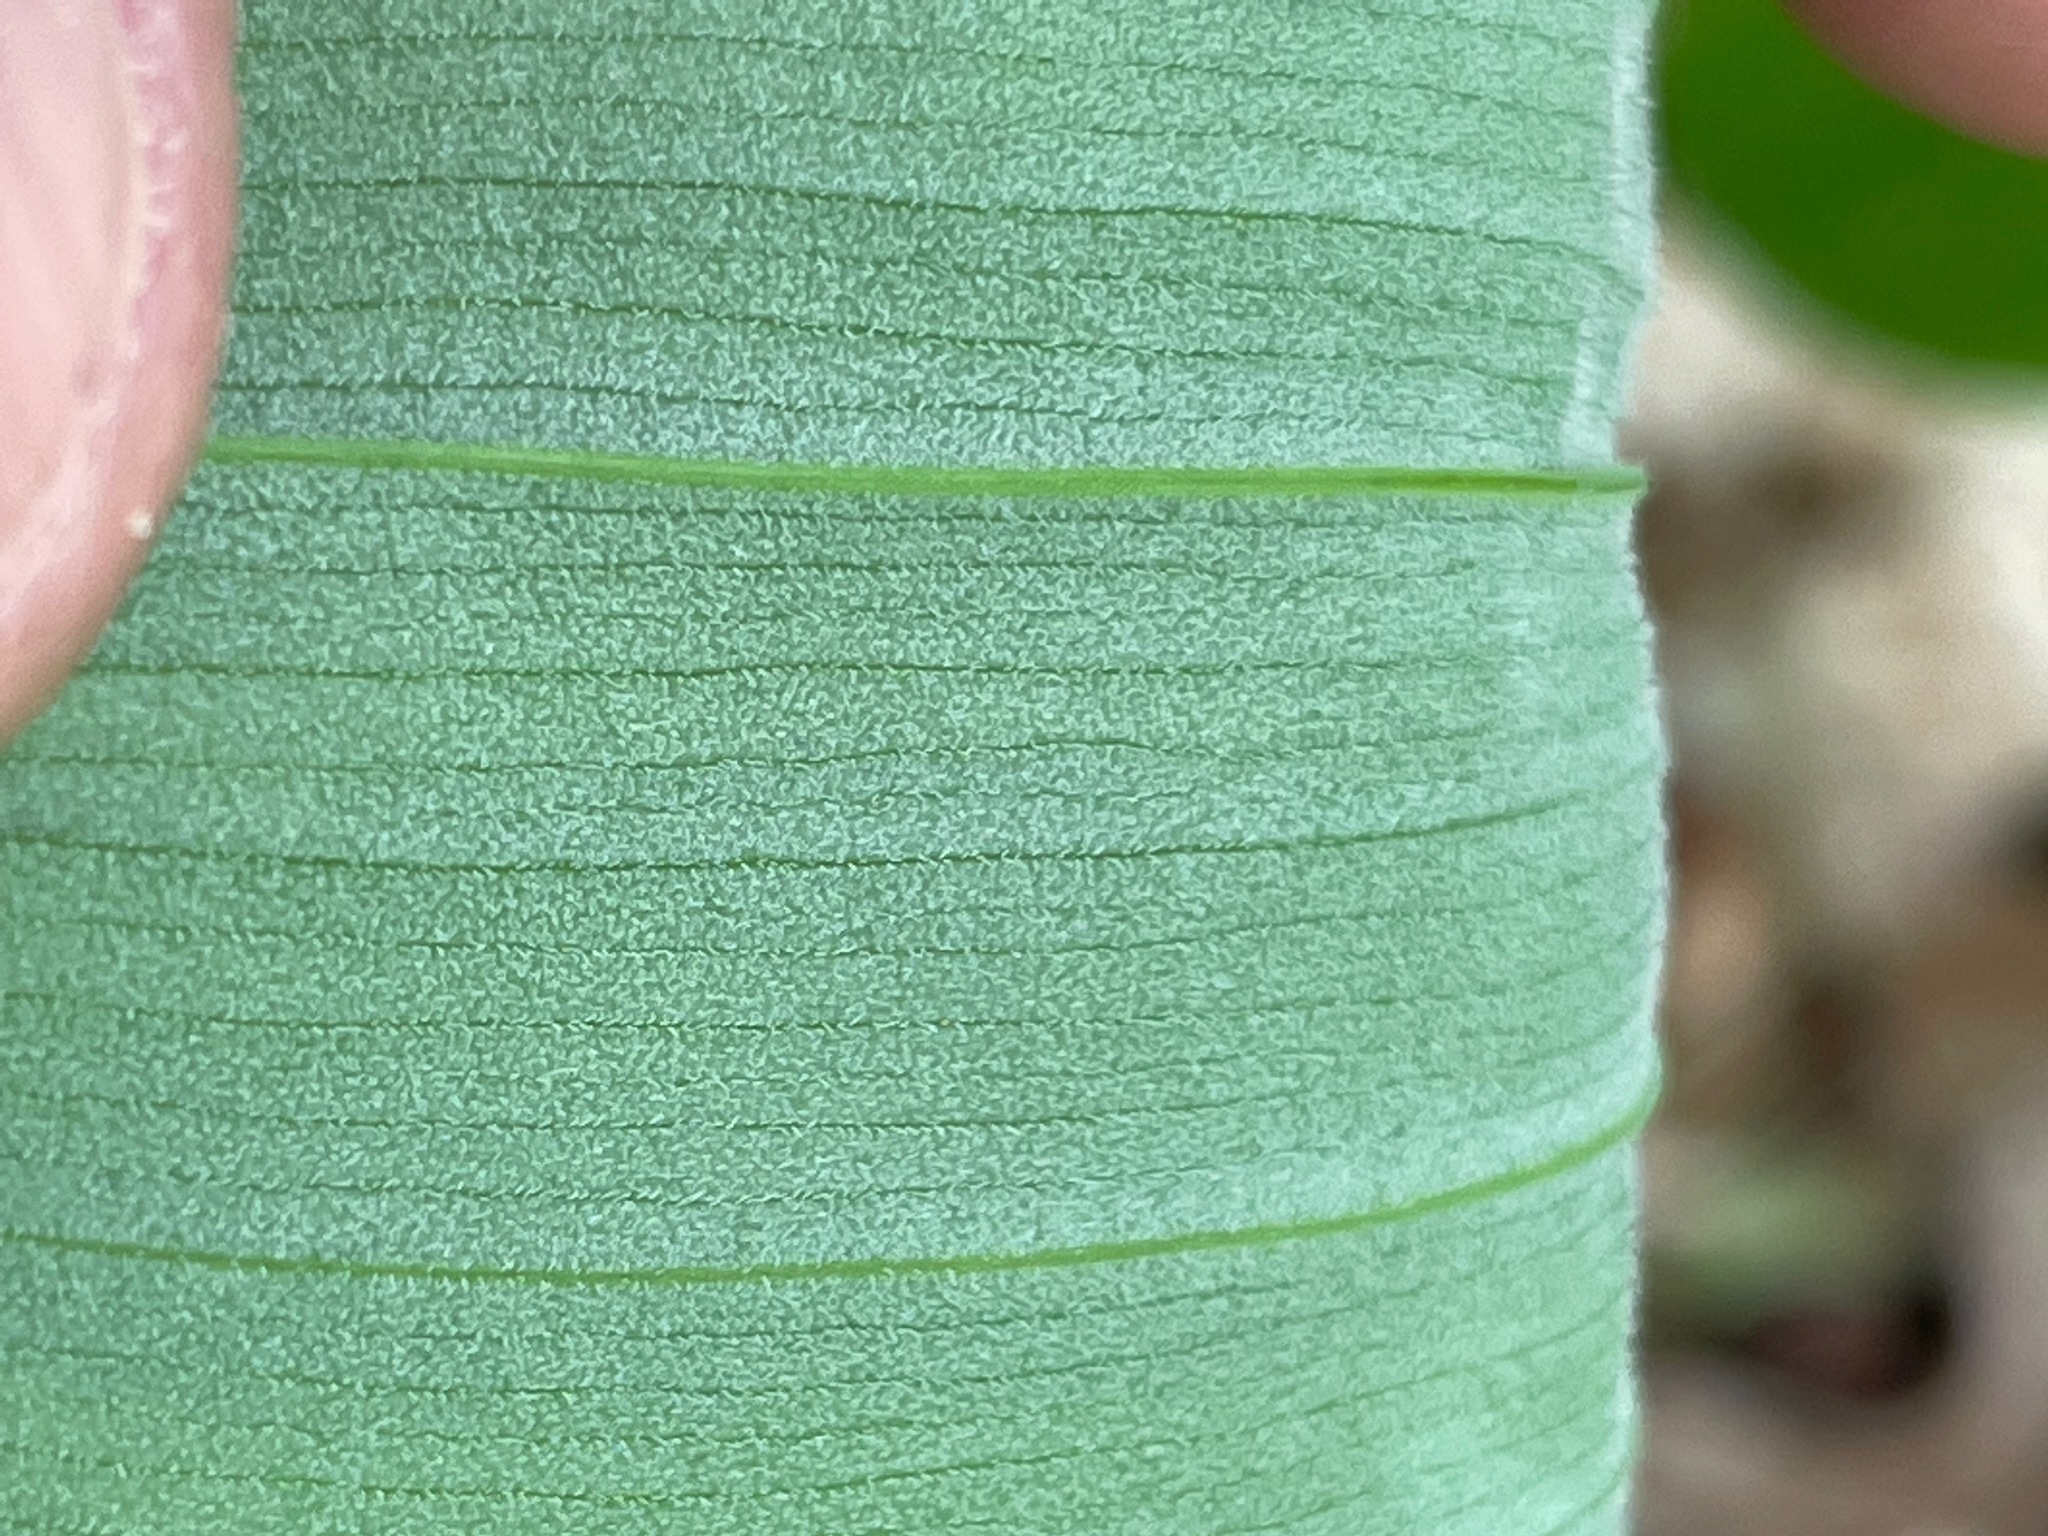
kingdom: Plantae
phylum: Tracheophyta
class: Liliopsida
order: Liliales
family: Colchicaceae
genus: Uvularia
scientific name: Uvularia grandiflora
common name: Bellwort
